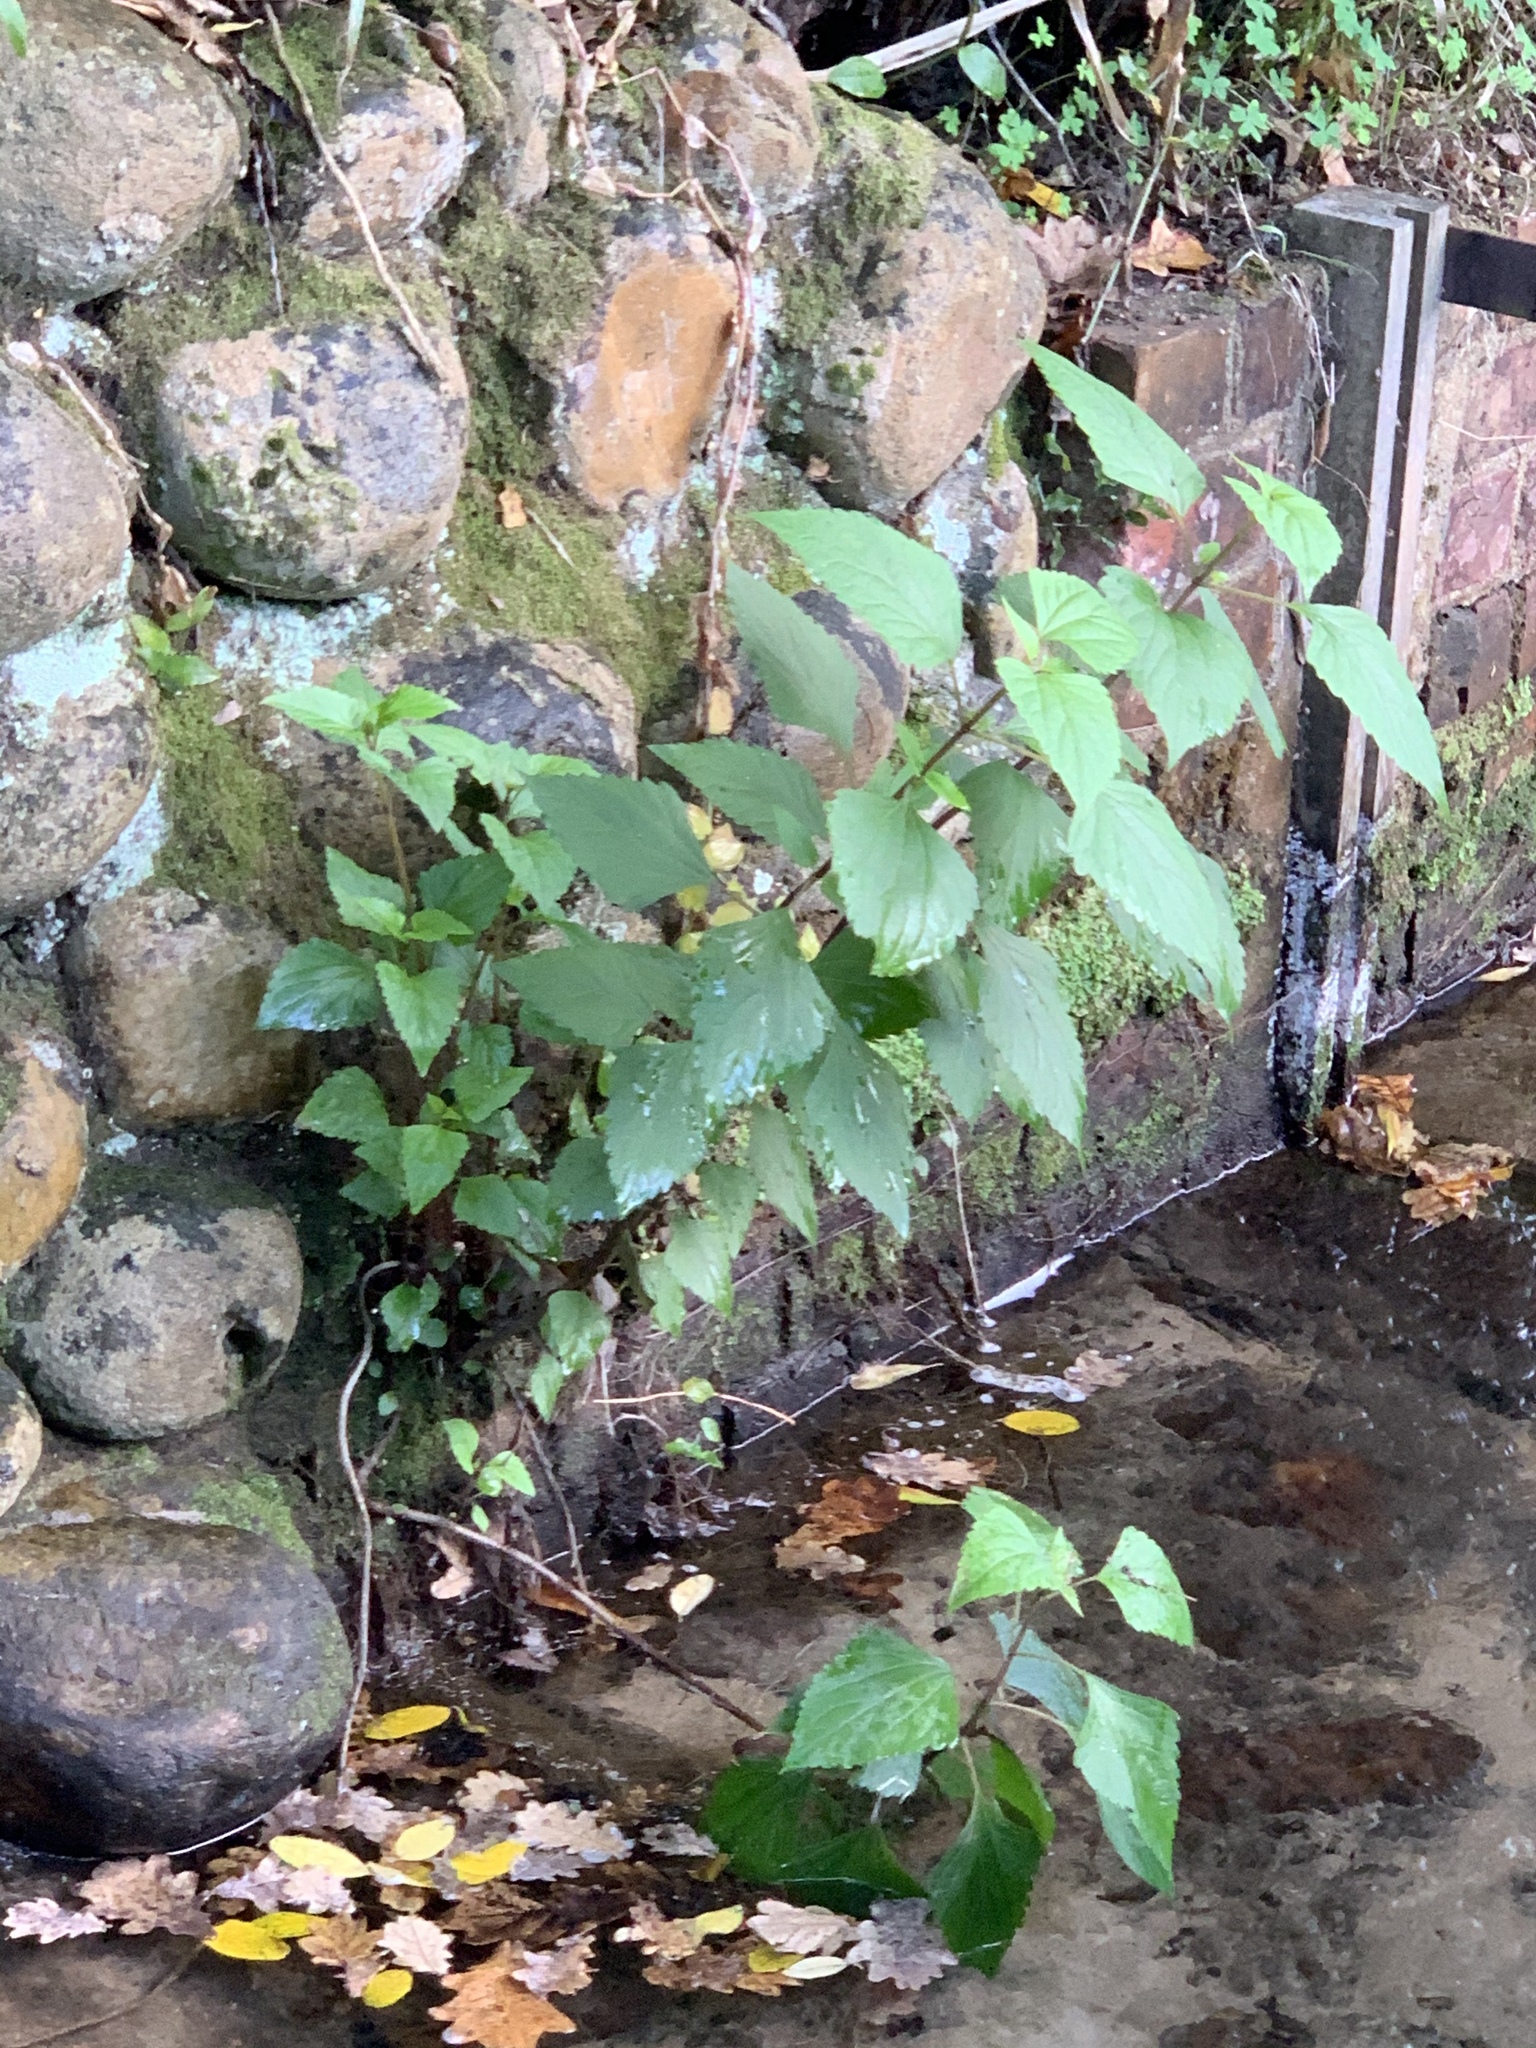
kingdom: Plantae
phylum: Tracheophyta
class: Magnoliopsida
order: Asterales
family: Asteraceae
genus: Ageratina
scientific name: Ageratina adenophora
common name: Sticky snakeroot
